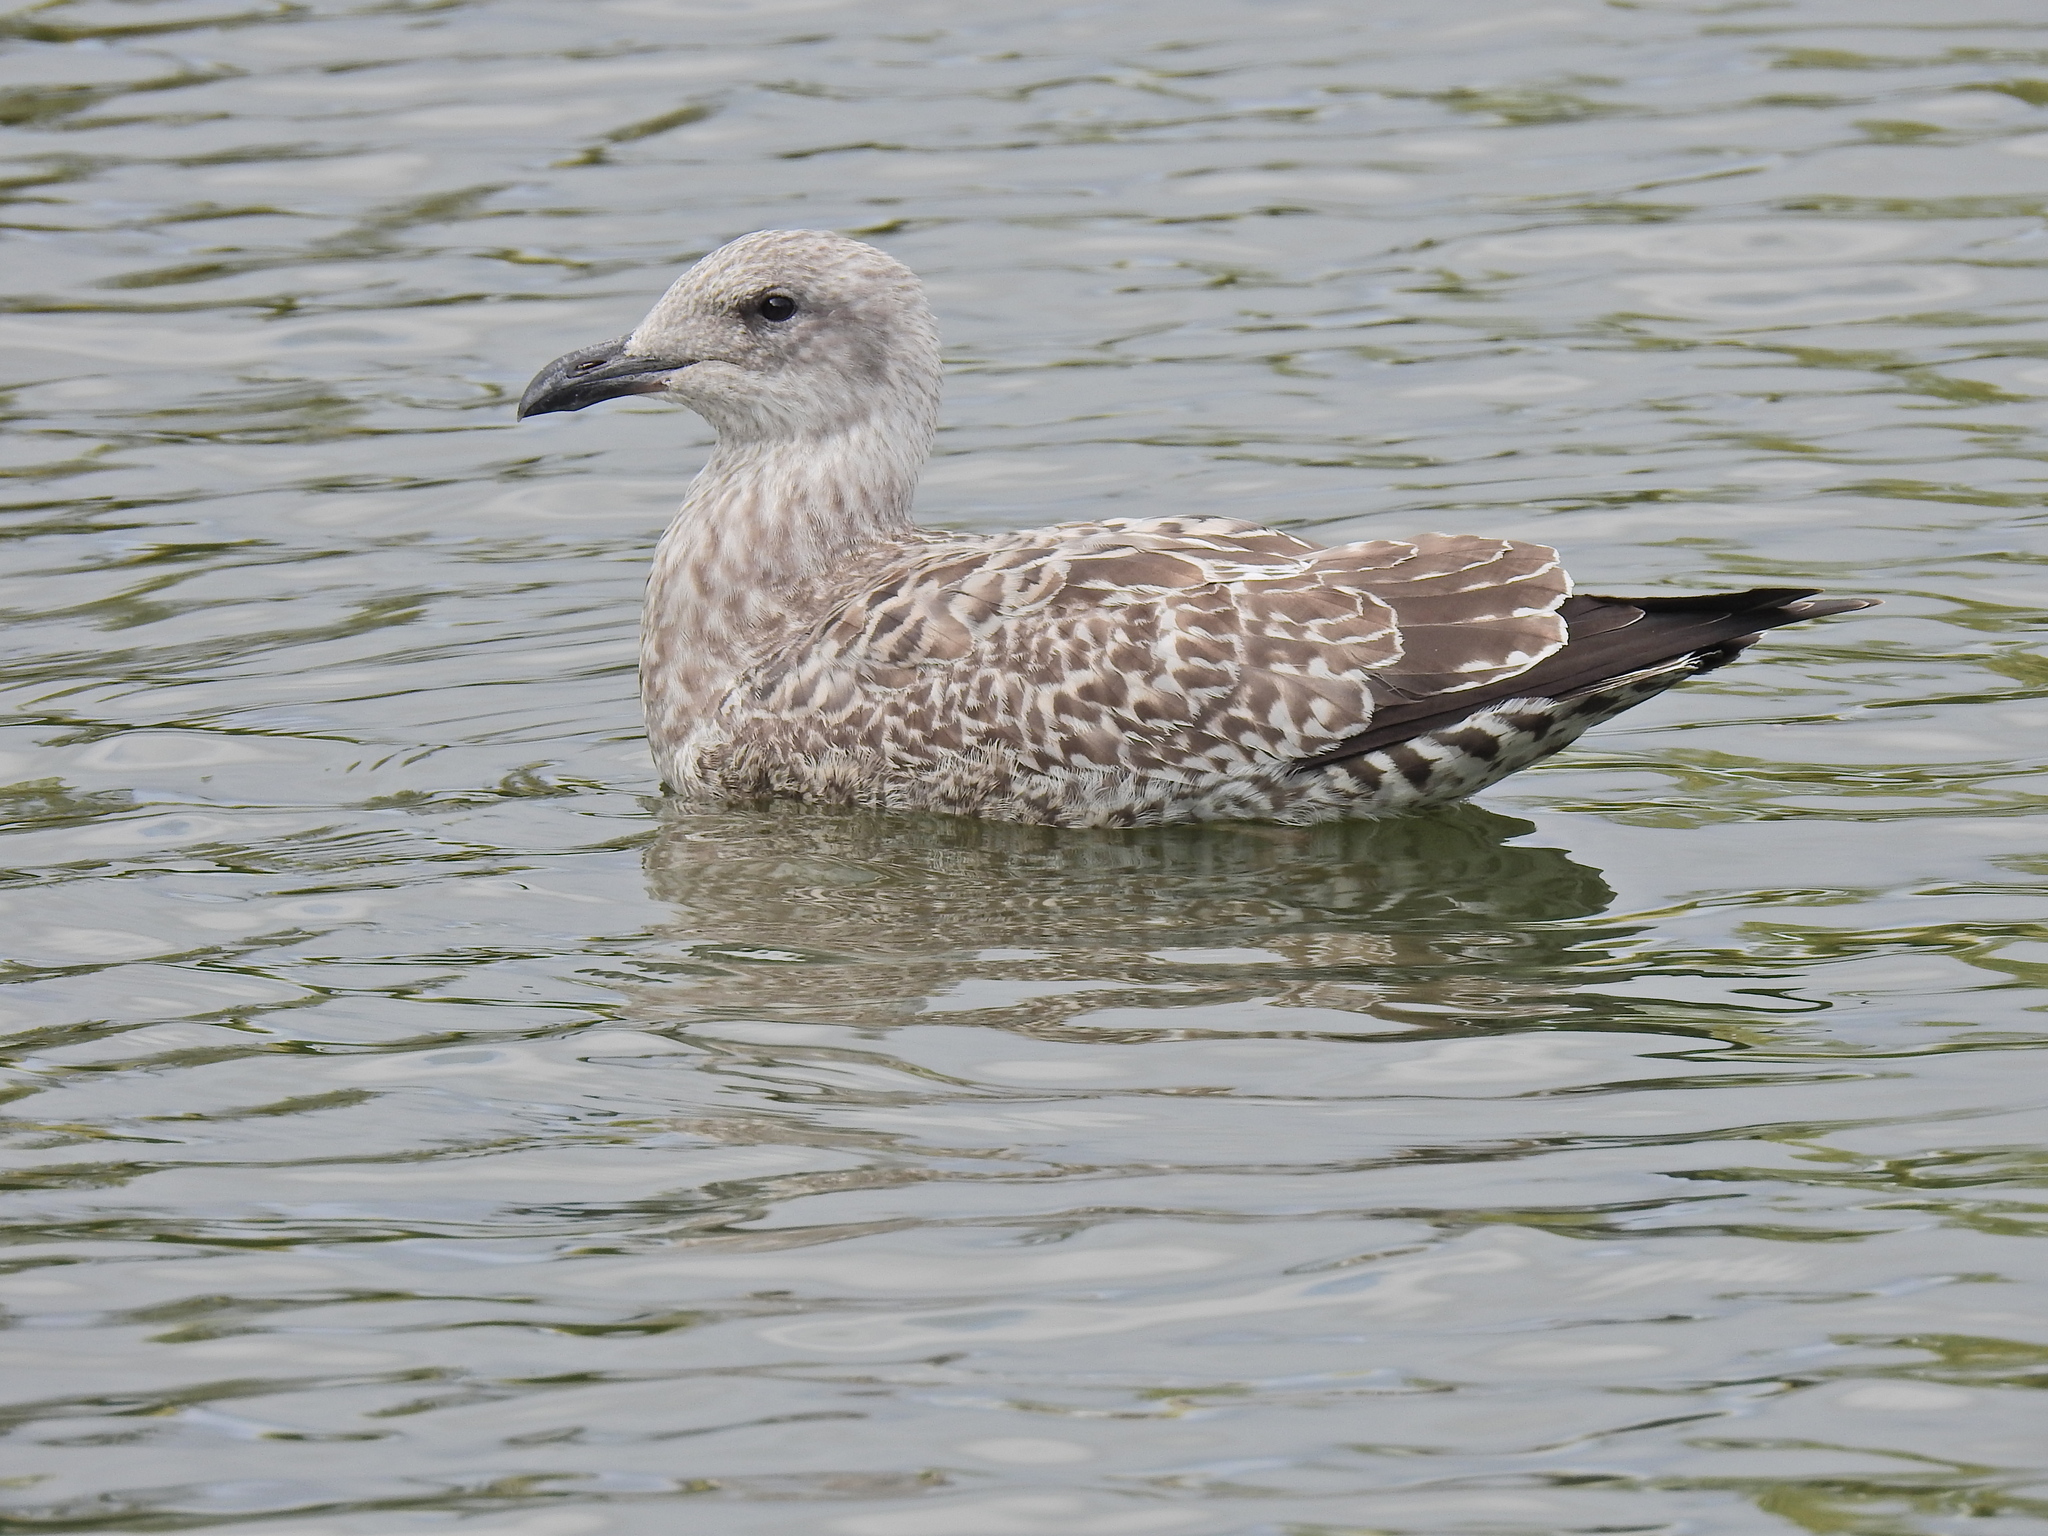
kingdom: Animalia
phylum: Chordata
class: Aves
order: Charadriiformes
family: Laridae
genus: Larus
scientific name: Larus argentatus
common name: Herring gull
